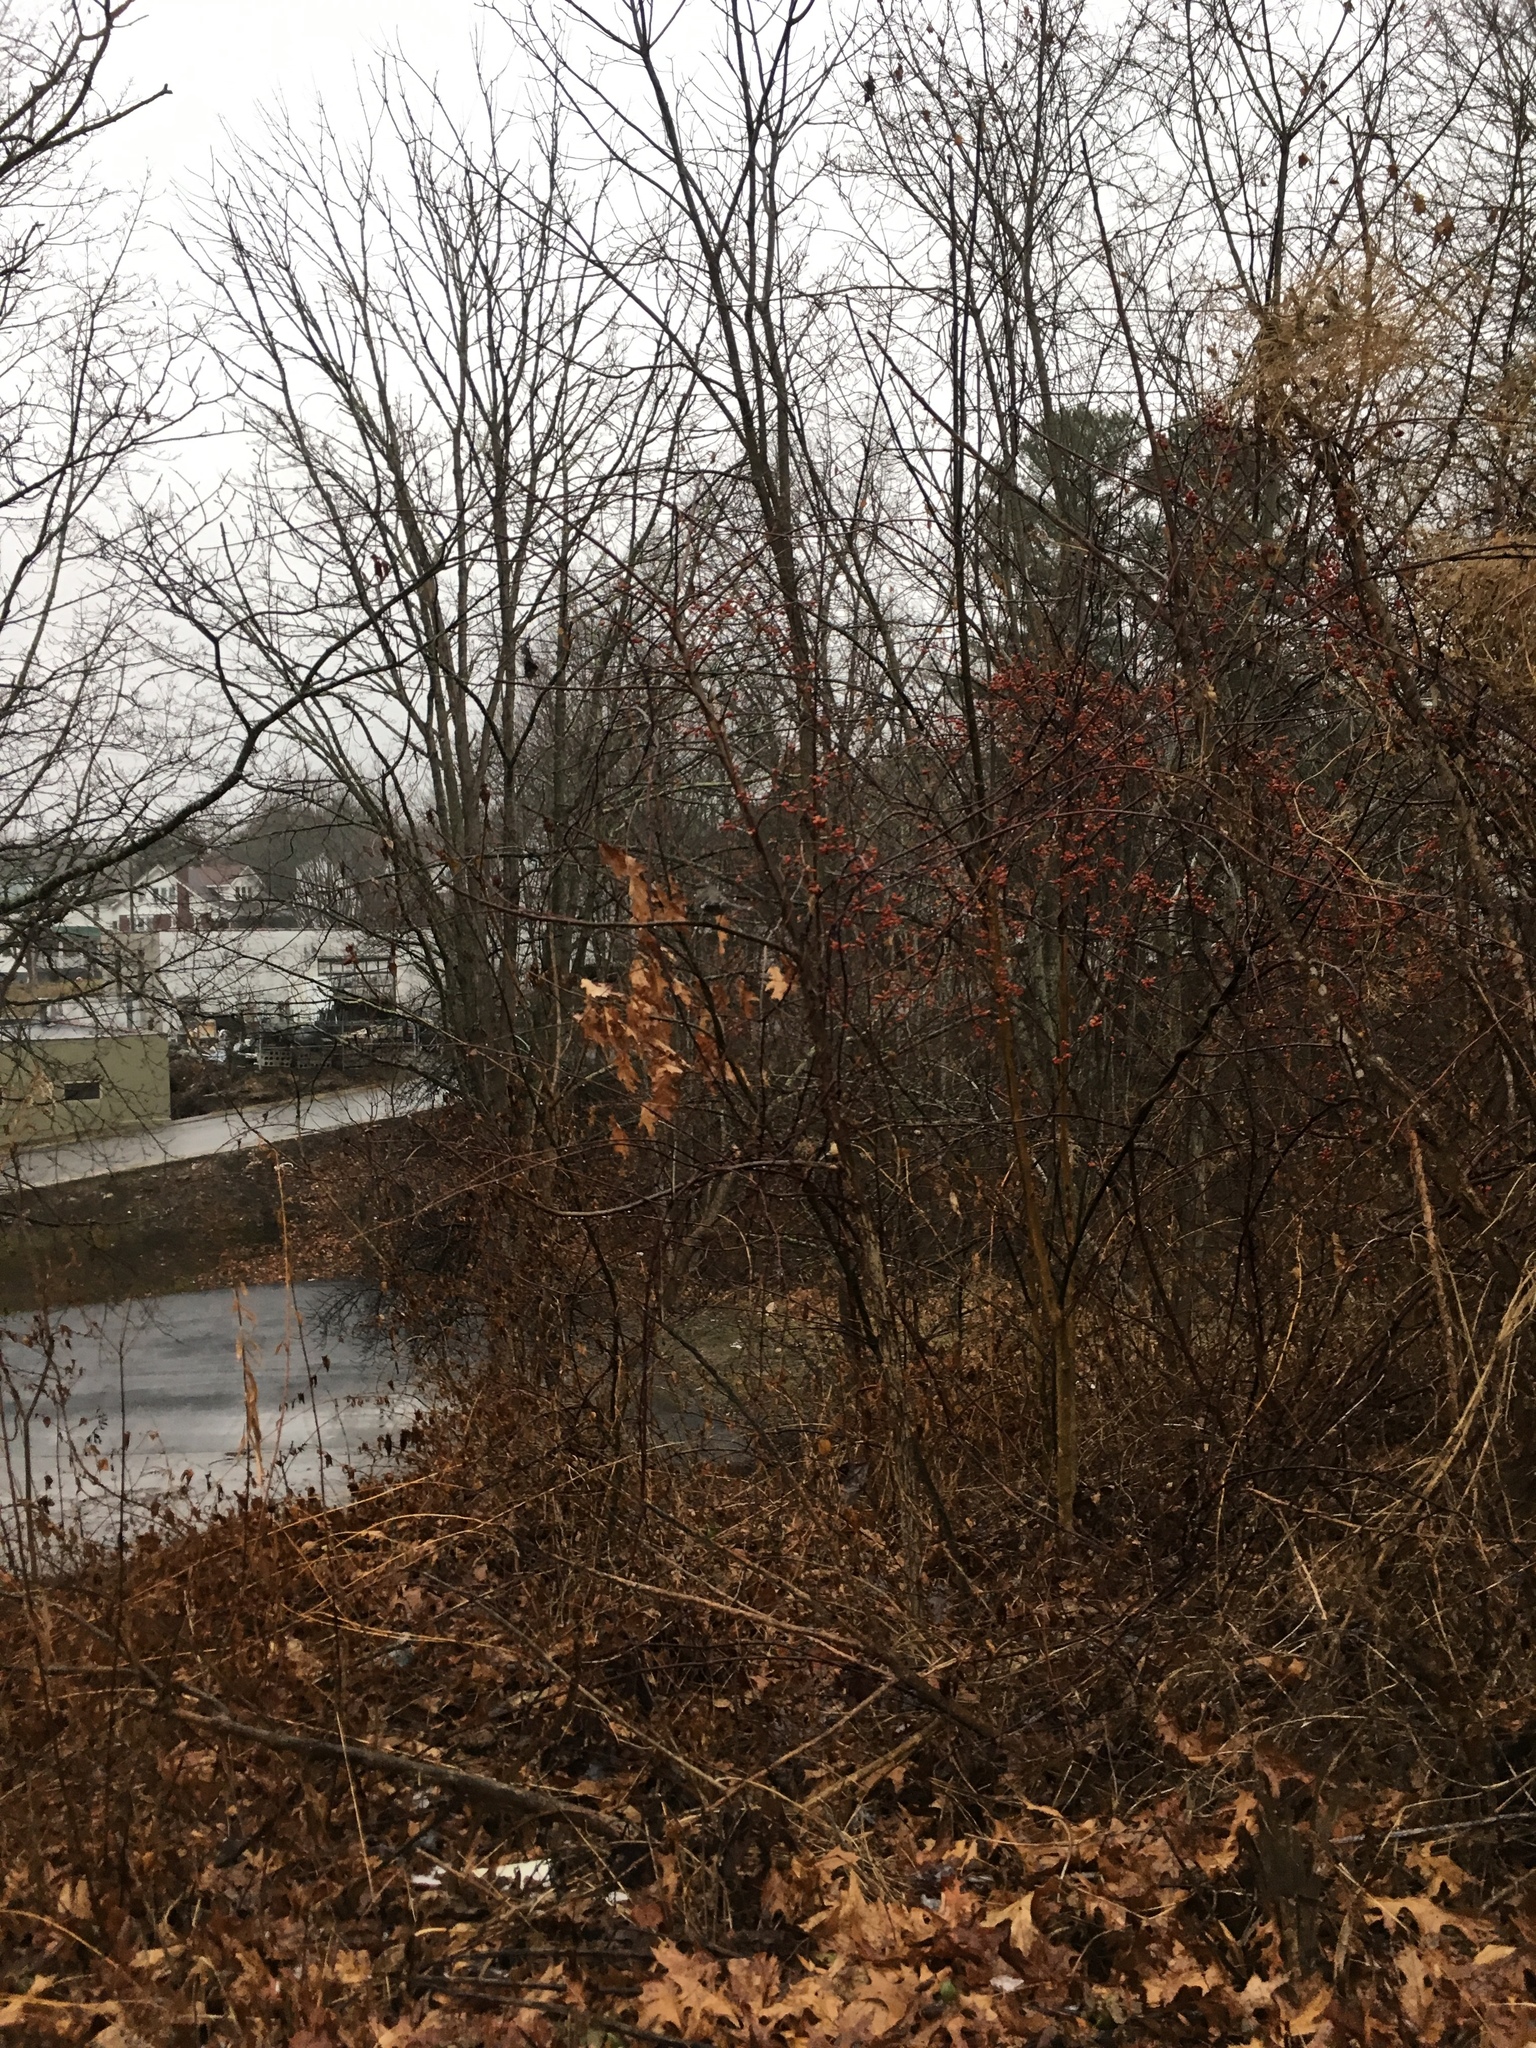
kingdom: Animalia
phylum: Chordata
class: Aves
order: Passeriformes
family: Mimidae
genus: Mimus
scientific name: Mimus polyglottos
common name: Northern mockingbird
